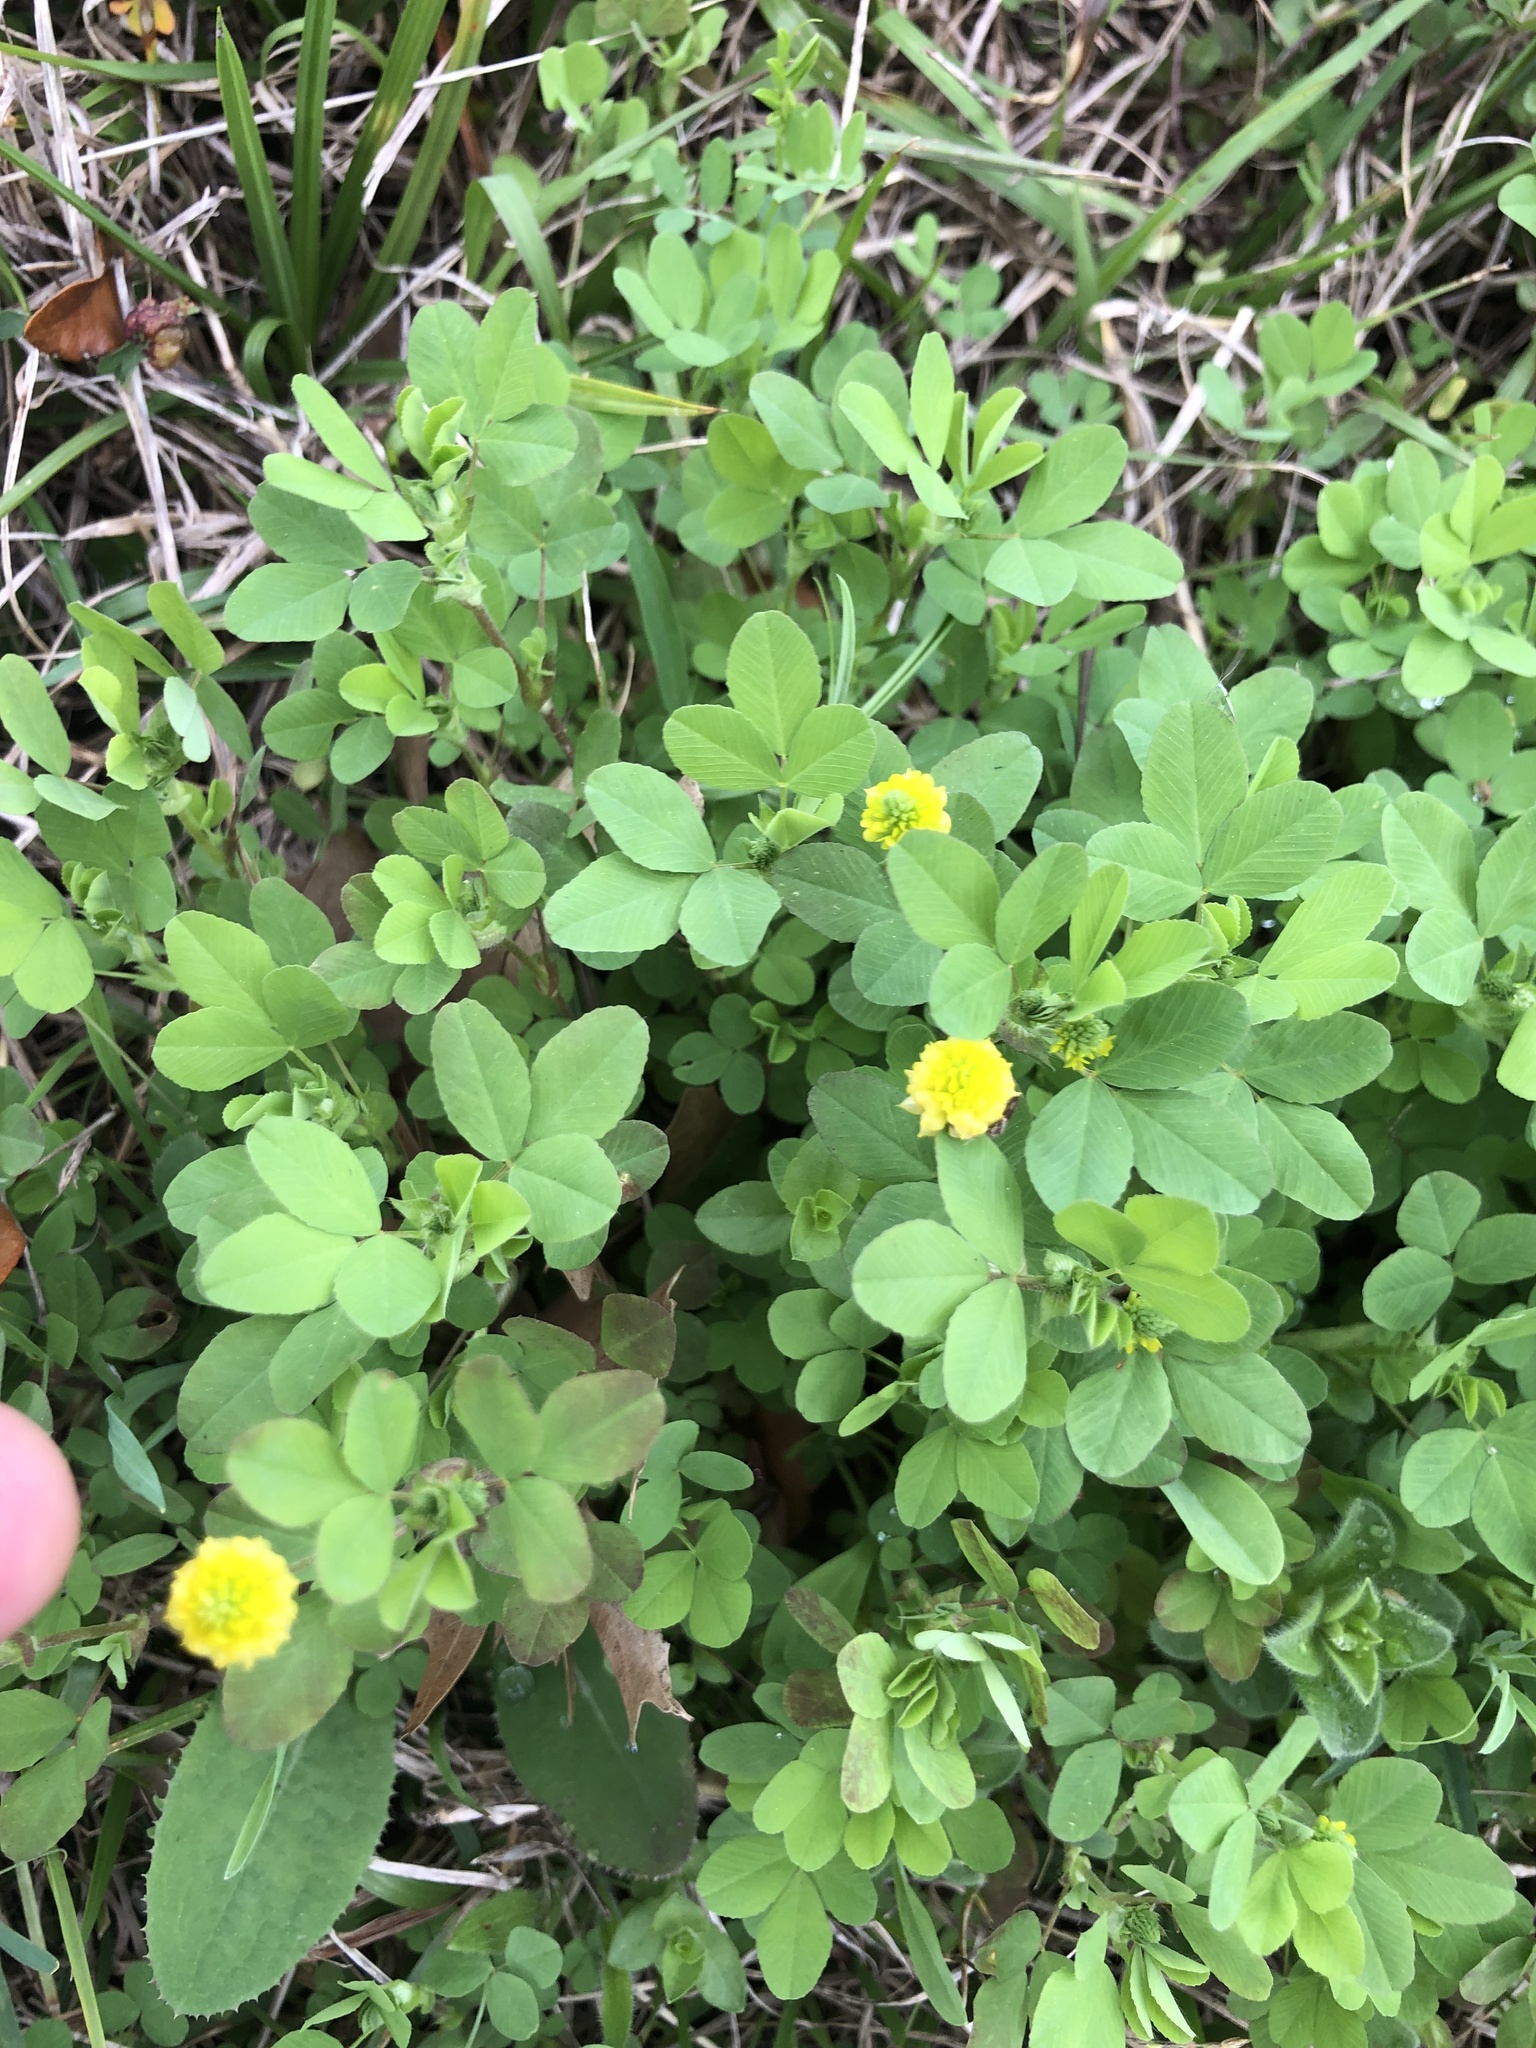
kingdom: Plantae
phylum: Tracheophyta
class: Magnoliopsida
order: Fabales
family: Fabaceae
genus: Trifolium
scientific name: Trifolium campestre
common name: Field clover
